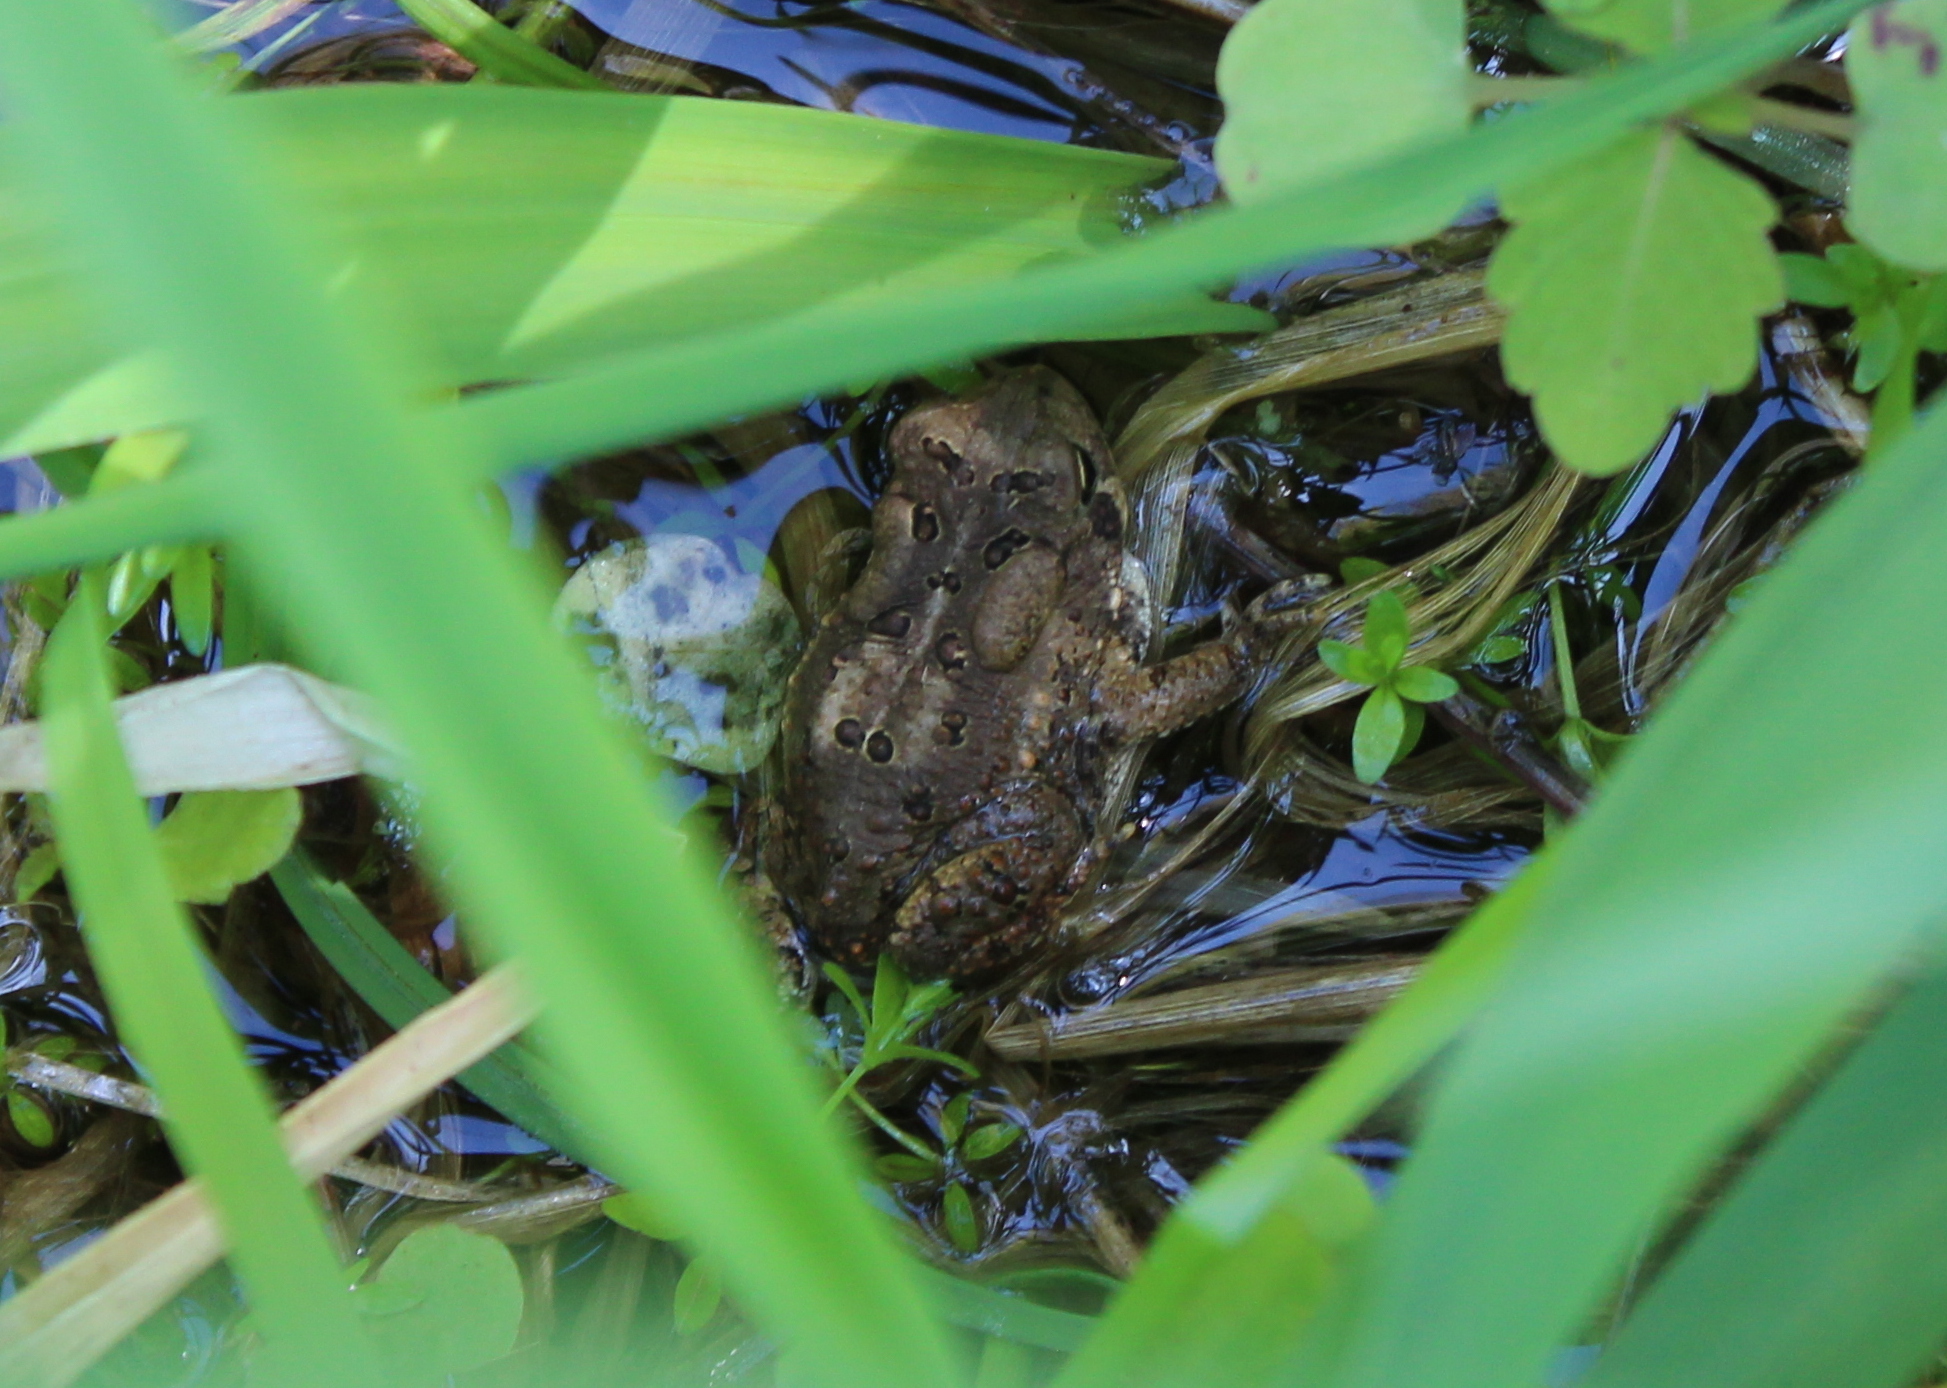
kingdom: Animalia
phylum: Chordata
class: Amphibia
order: Anura
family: Bufonidae
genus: Anaxyrus
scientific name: Anaxyrus americanus
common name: American toad
